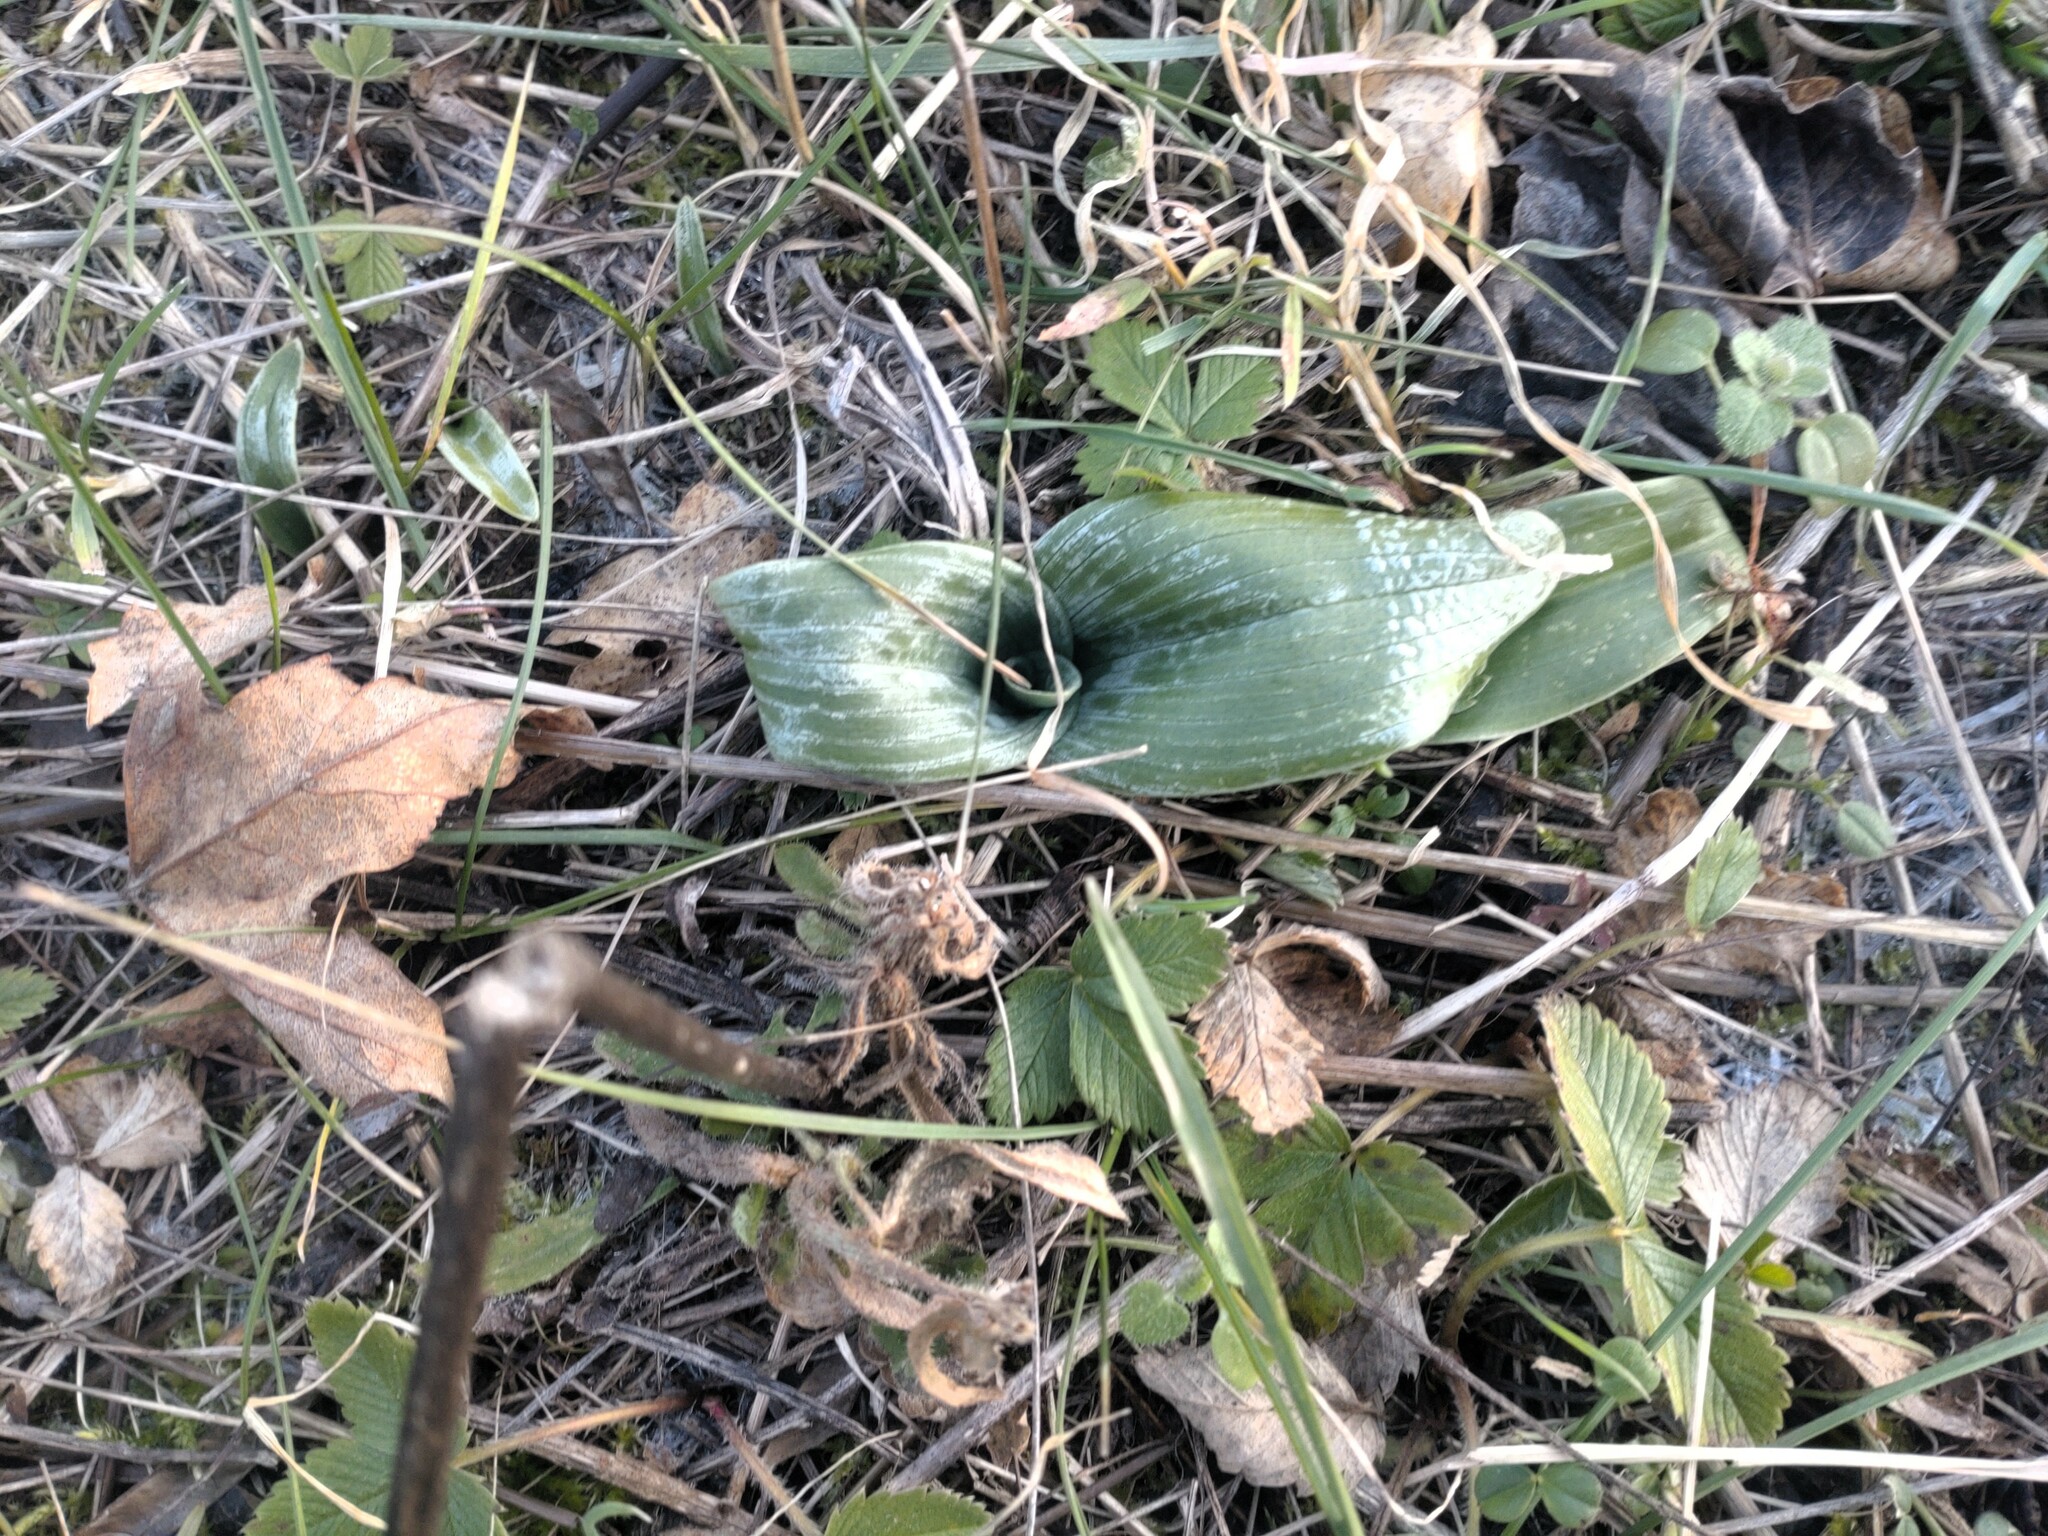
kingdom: Plantae
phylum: Tracheophyta
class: Liliopsida
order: Asparagales
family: Orchidaceae
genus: Himantoglossum
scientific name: Himantoglossum adriaticum
